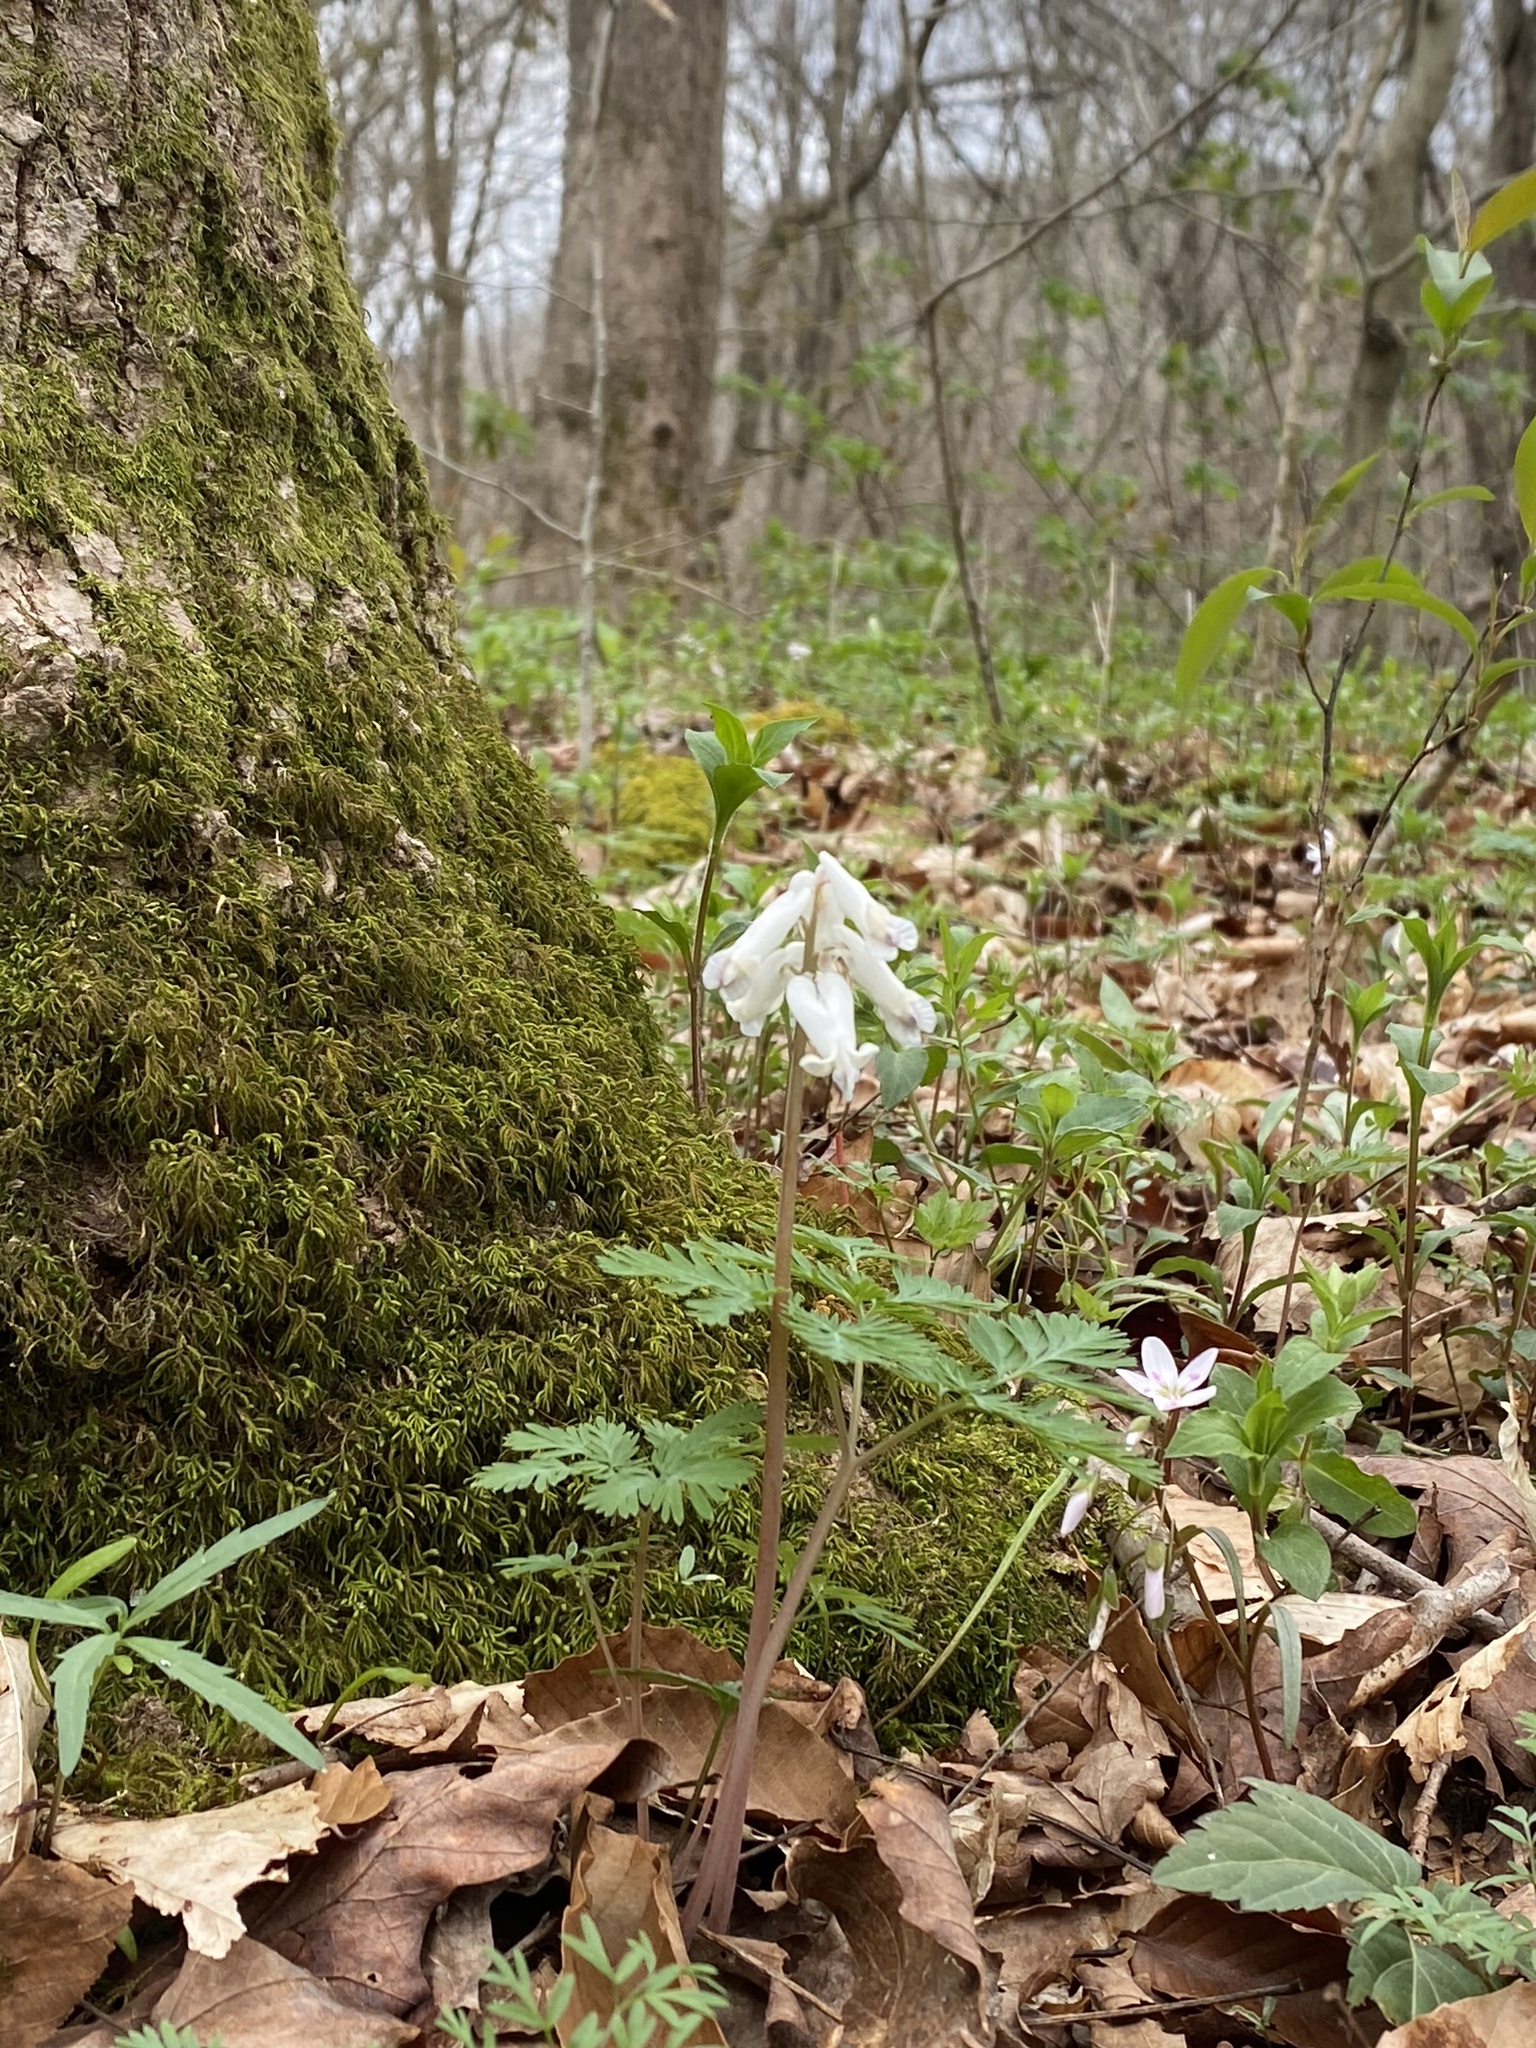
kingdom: Plantae
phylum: Tracheophyta
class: Magnoliopsida
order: Ranunculales
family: Papaveraceae
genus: Dicentra
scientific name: Dicentra canadensis
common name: Squirrel-corn
